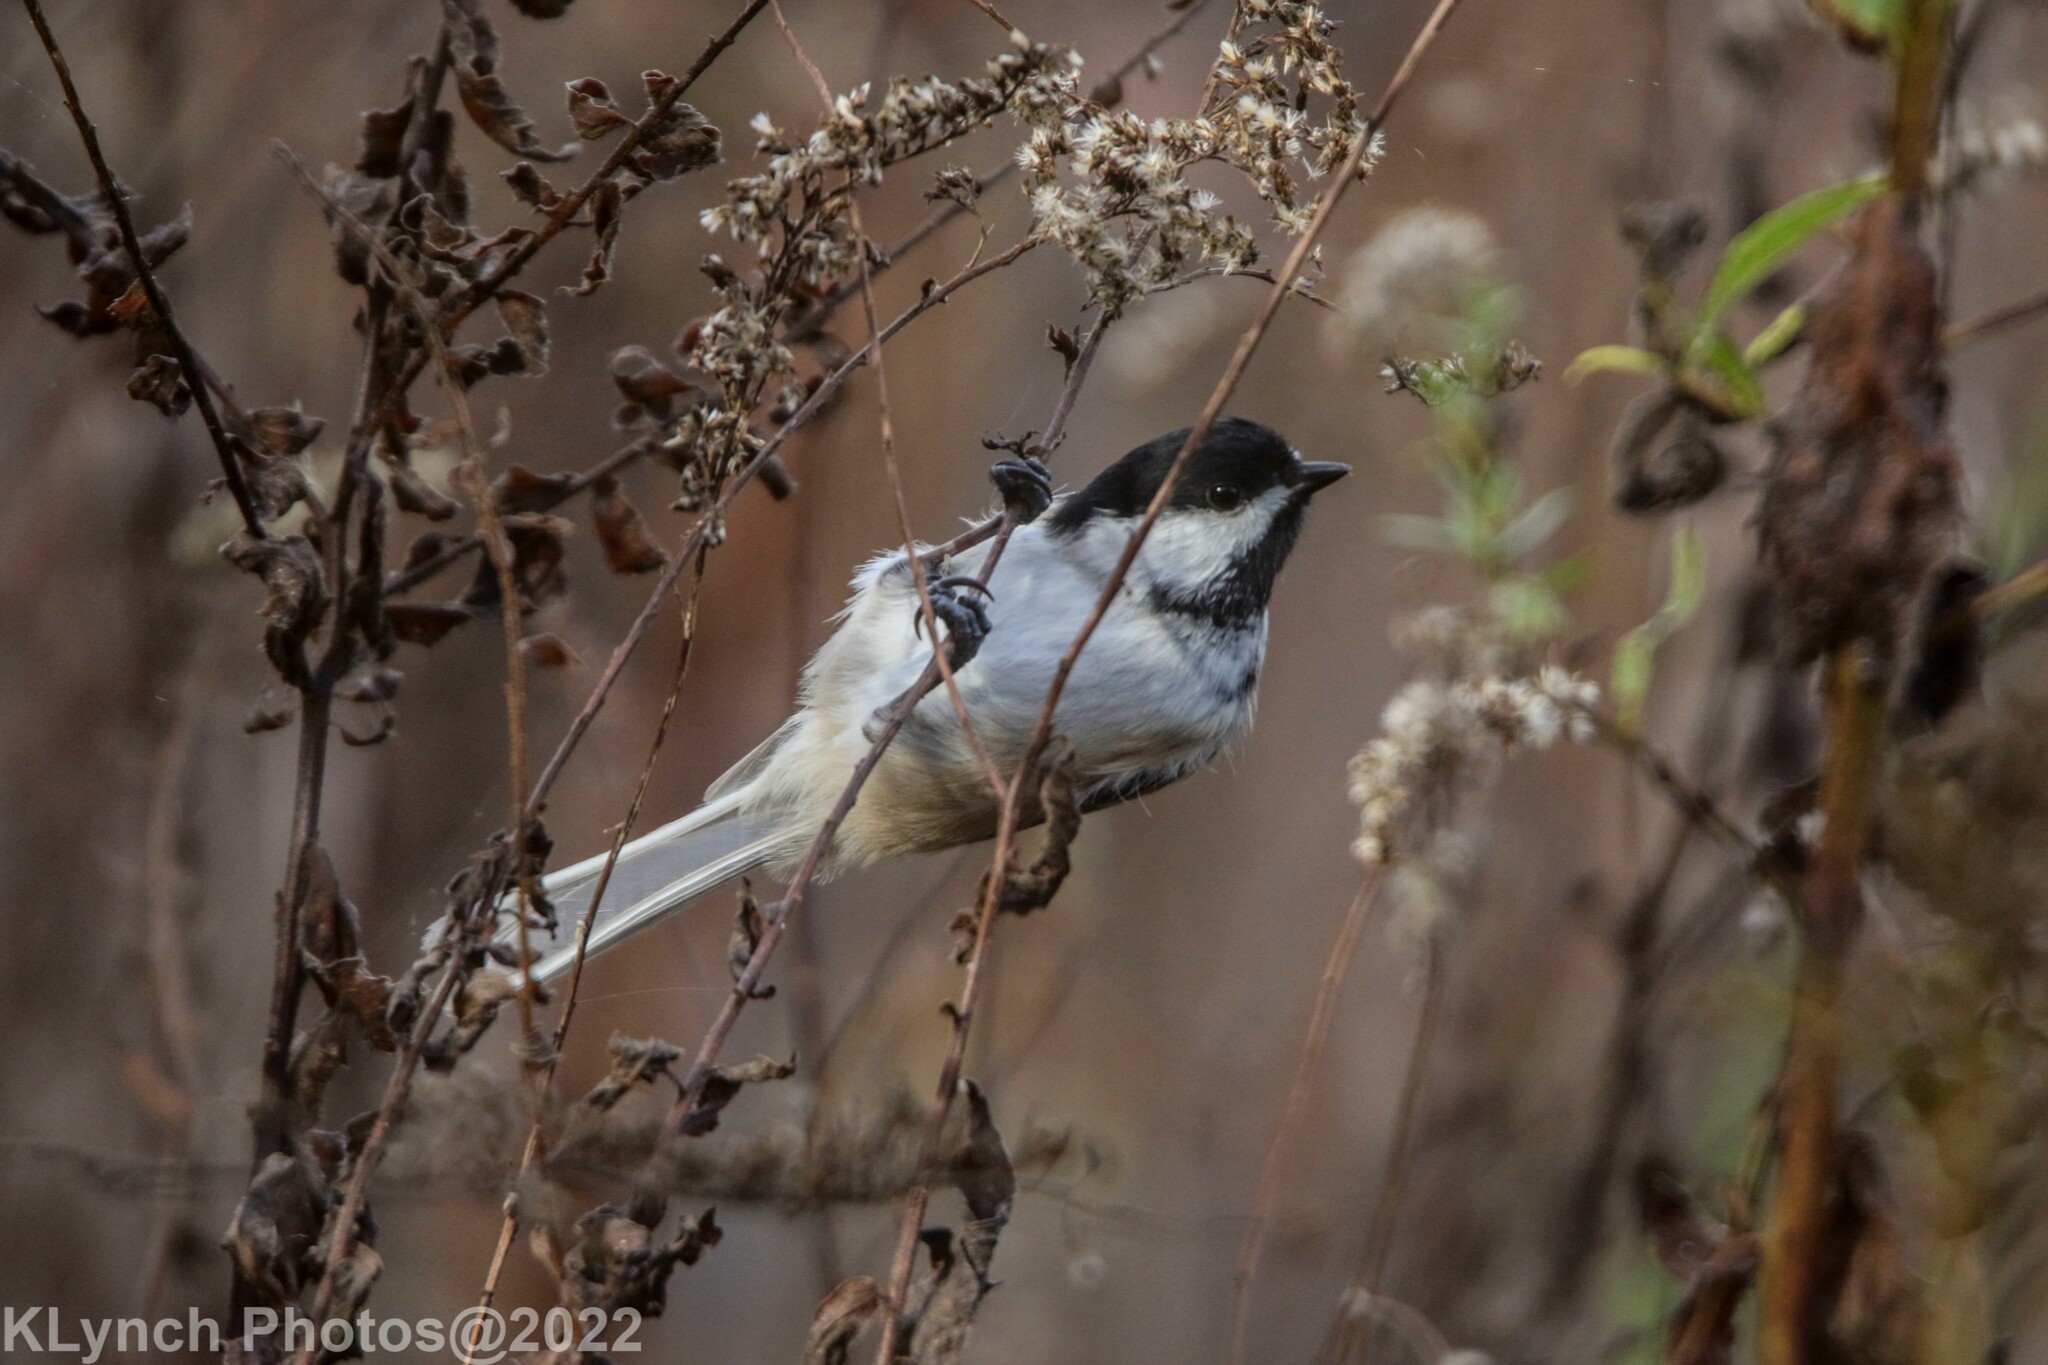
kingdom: Animalia
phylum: Chordata
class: Aves
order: Passeriformes
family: Paridae
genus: Poecile
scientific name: Poecile atricapillus
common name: Black-capped chickadee
